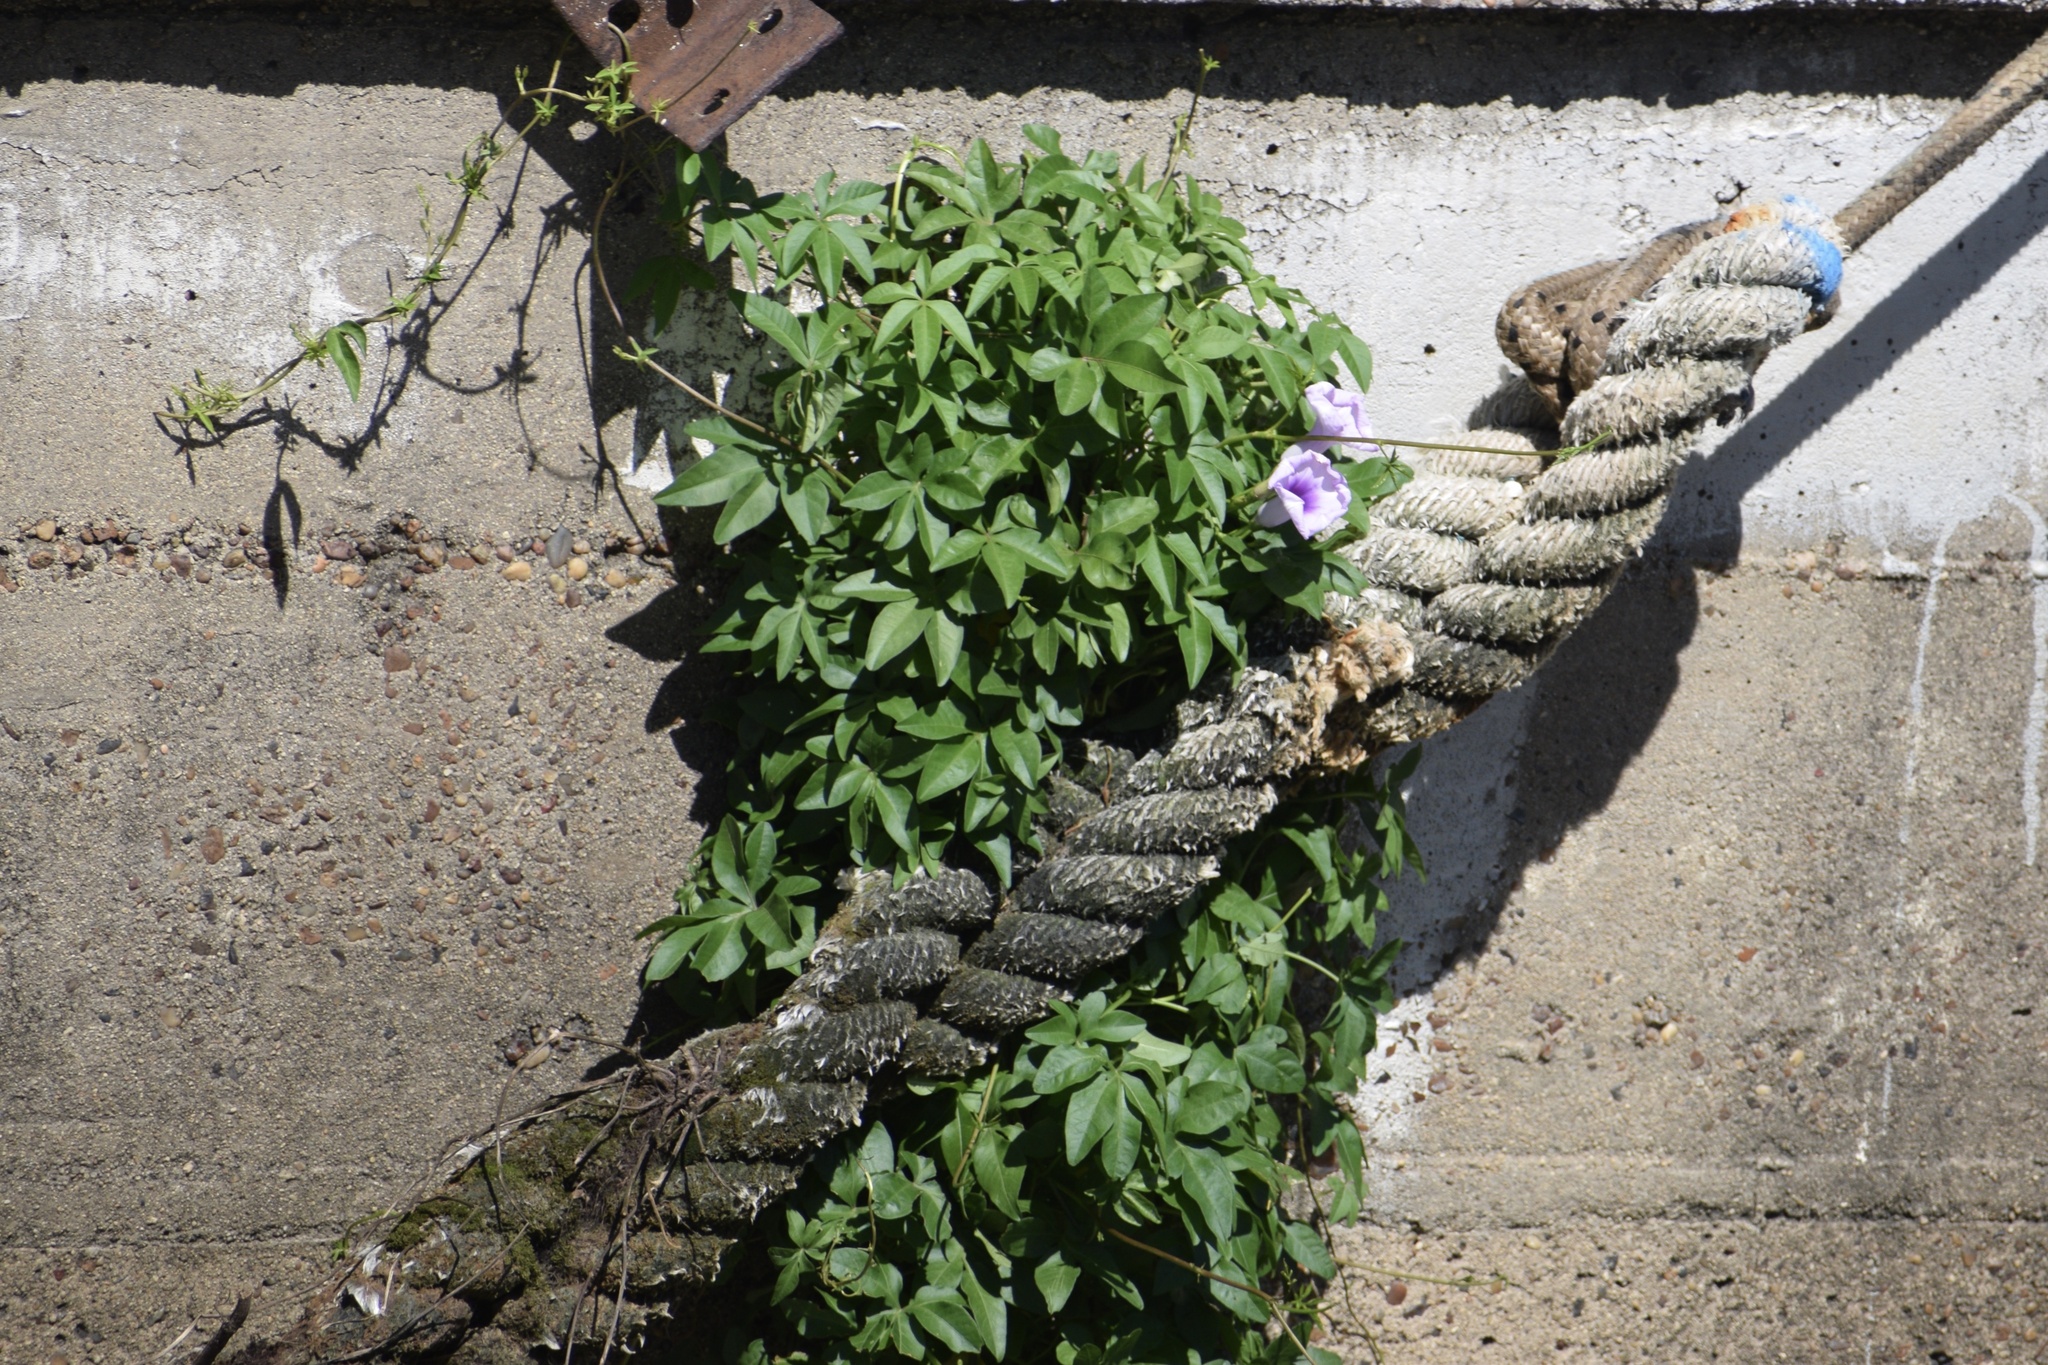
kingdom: Plantae
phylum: Tracheophyta
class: Magnoliopsida
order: Solanales
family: Convolvulaceae
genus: Ipomoea
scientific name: Ipomoea cairica
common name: Mile a minute vine
